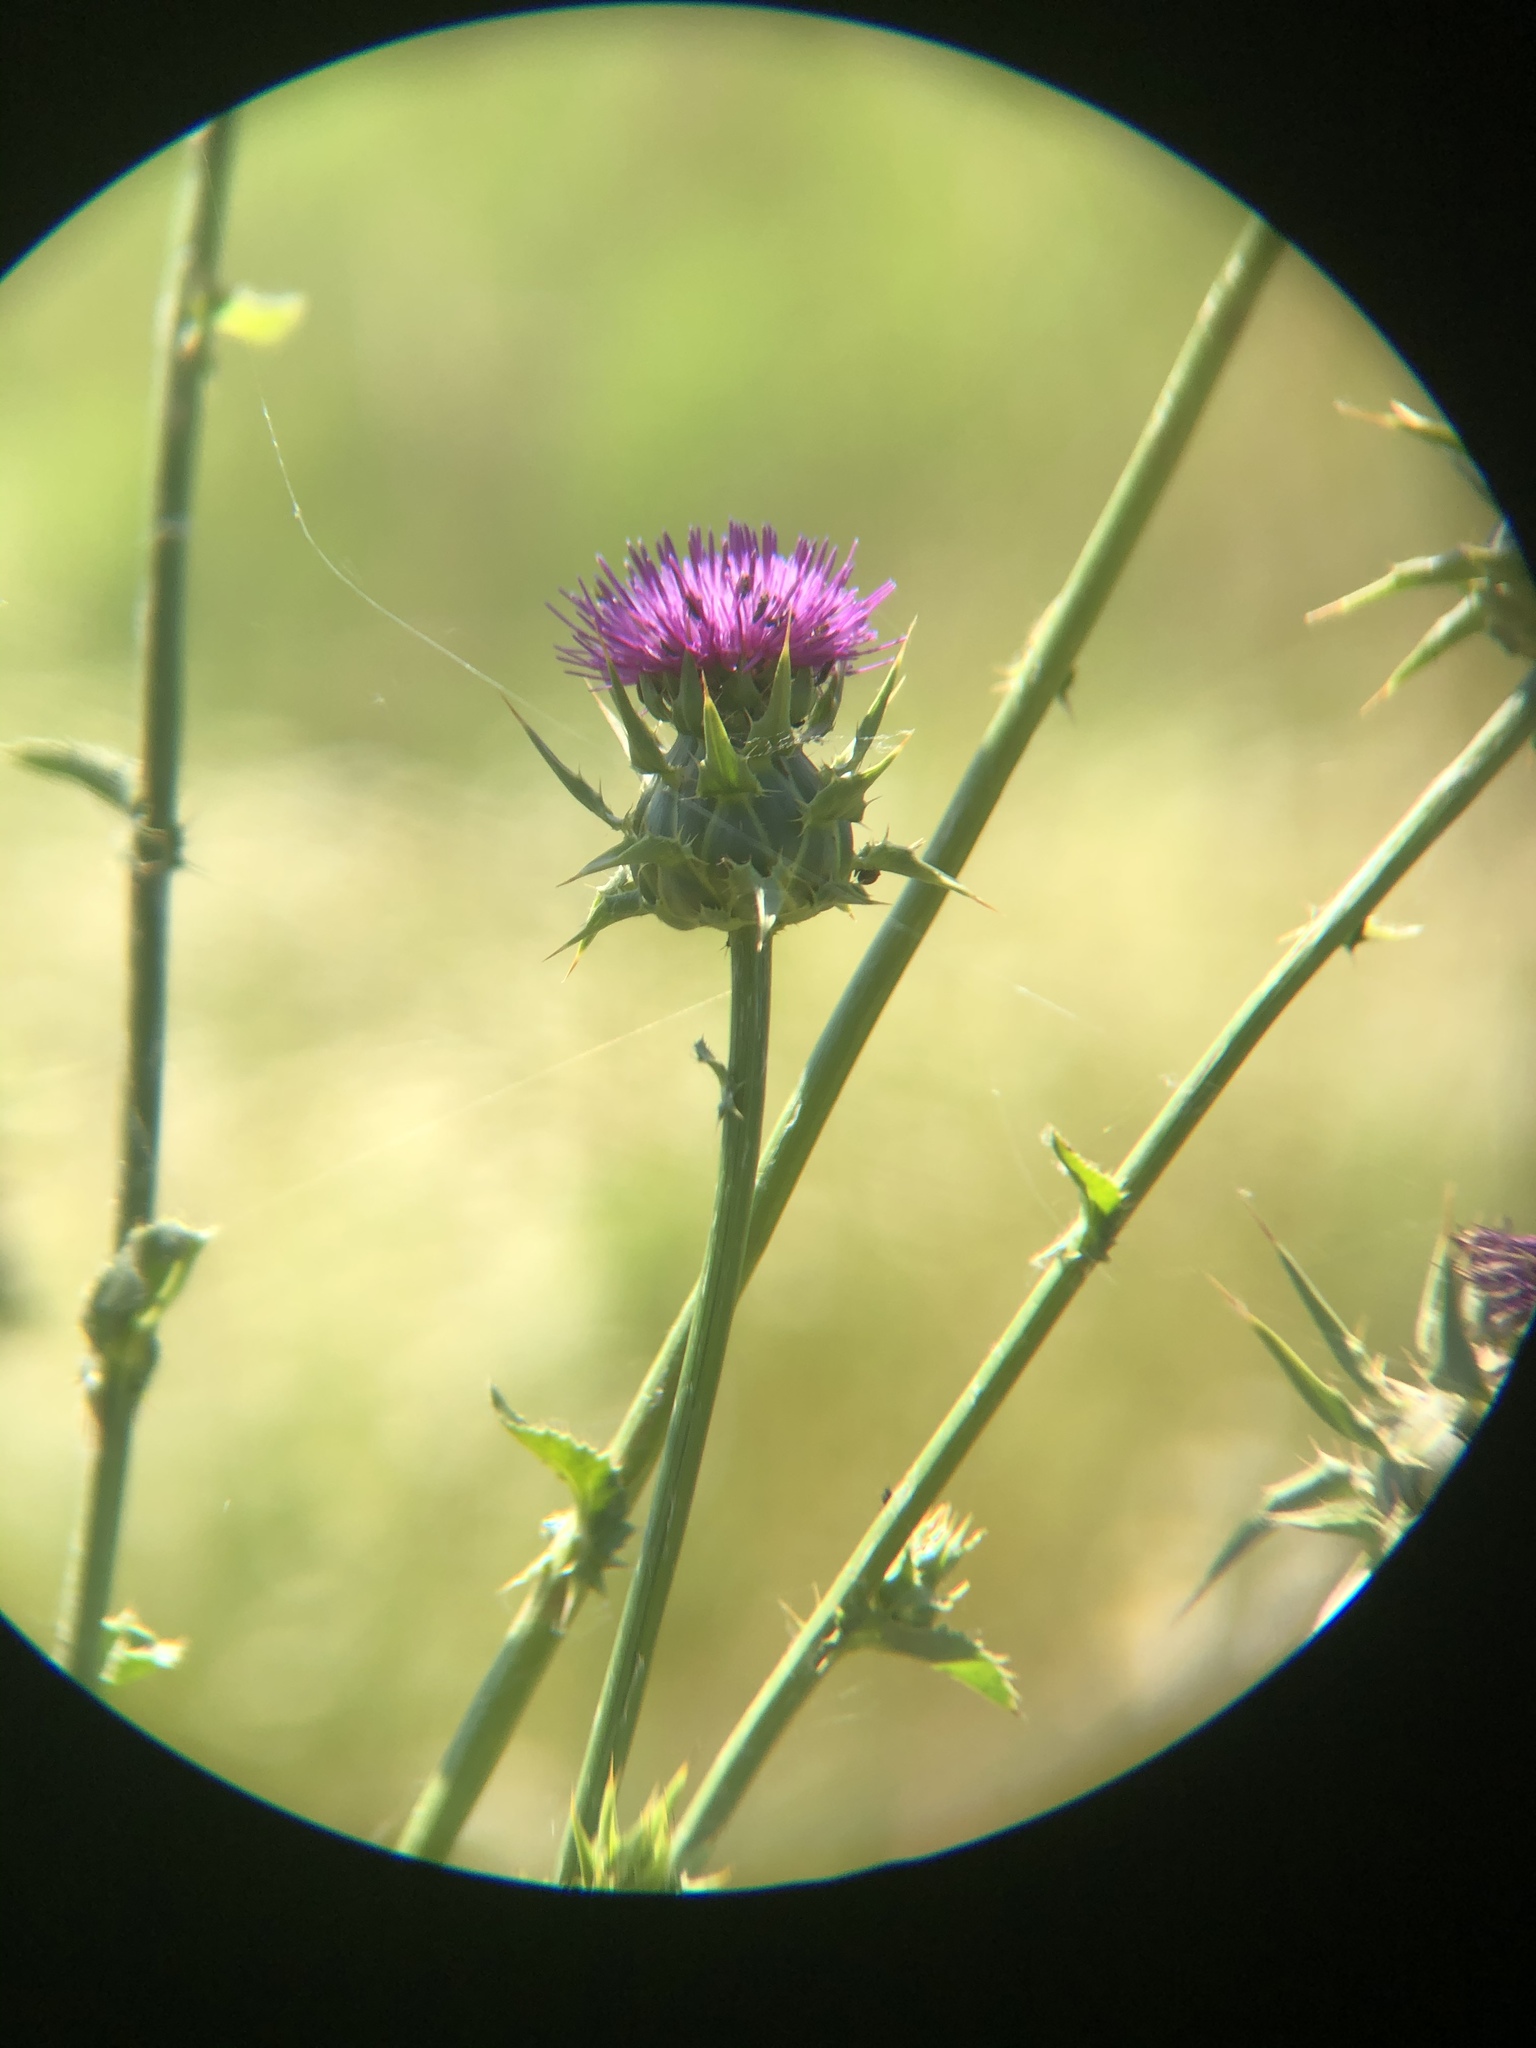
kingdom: Plantae
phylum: Tracheophyta
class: Magnoliopsida
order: Asterales
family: Asteraceae
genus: Silybum
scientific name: Silybum marianum
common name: Milk thistle
